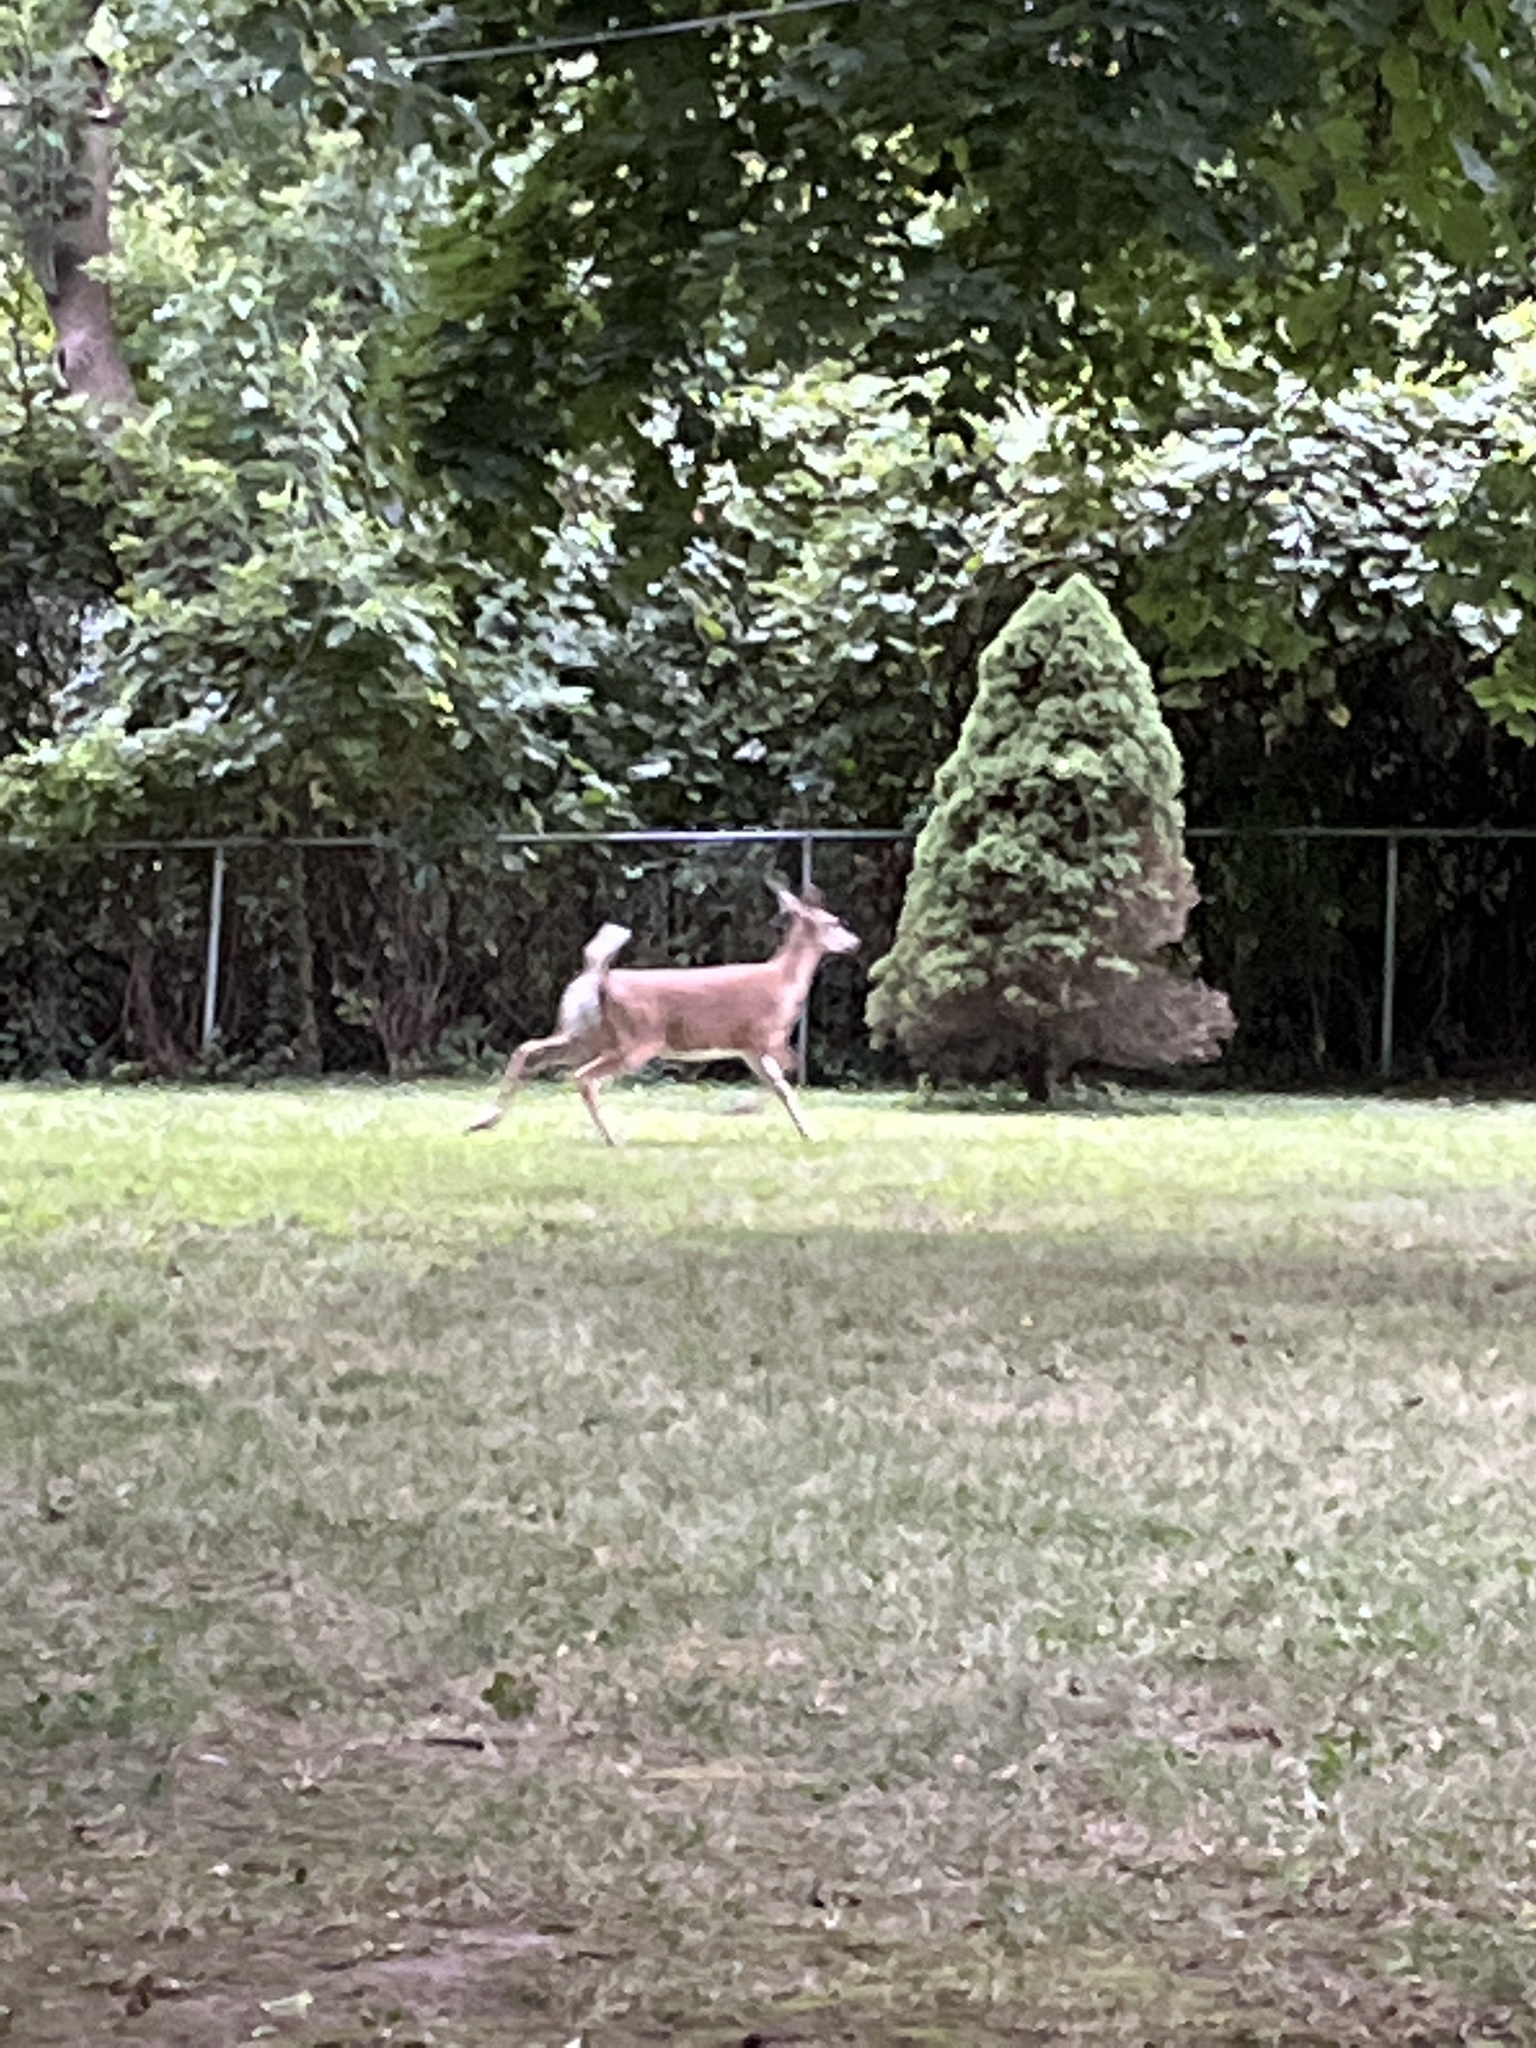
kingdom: Animalia
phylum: Chordata
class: Mammalia
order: Artiodactyla
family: Cervidae
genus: Odocoileus
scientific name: Odocoileus virginianus
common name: White-tailed deer
